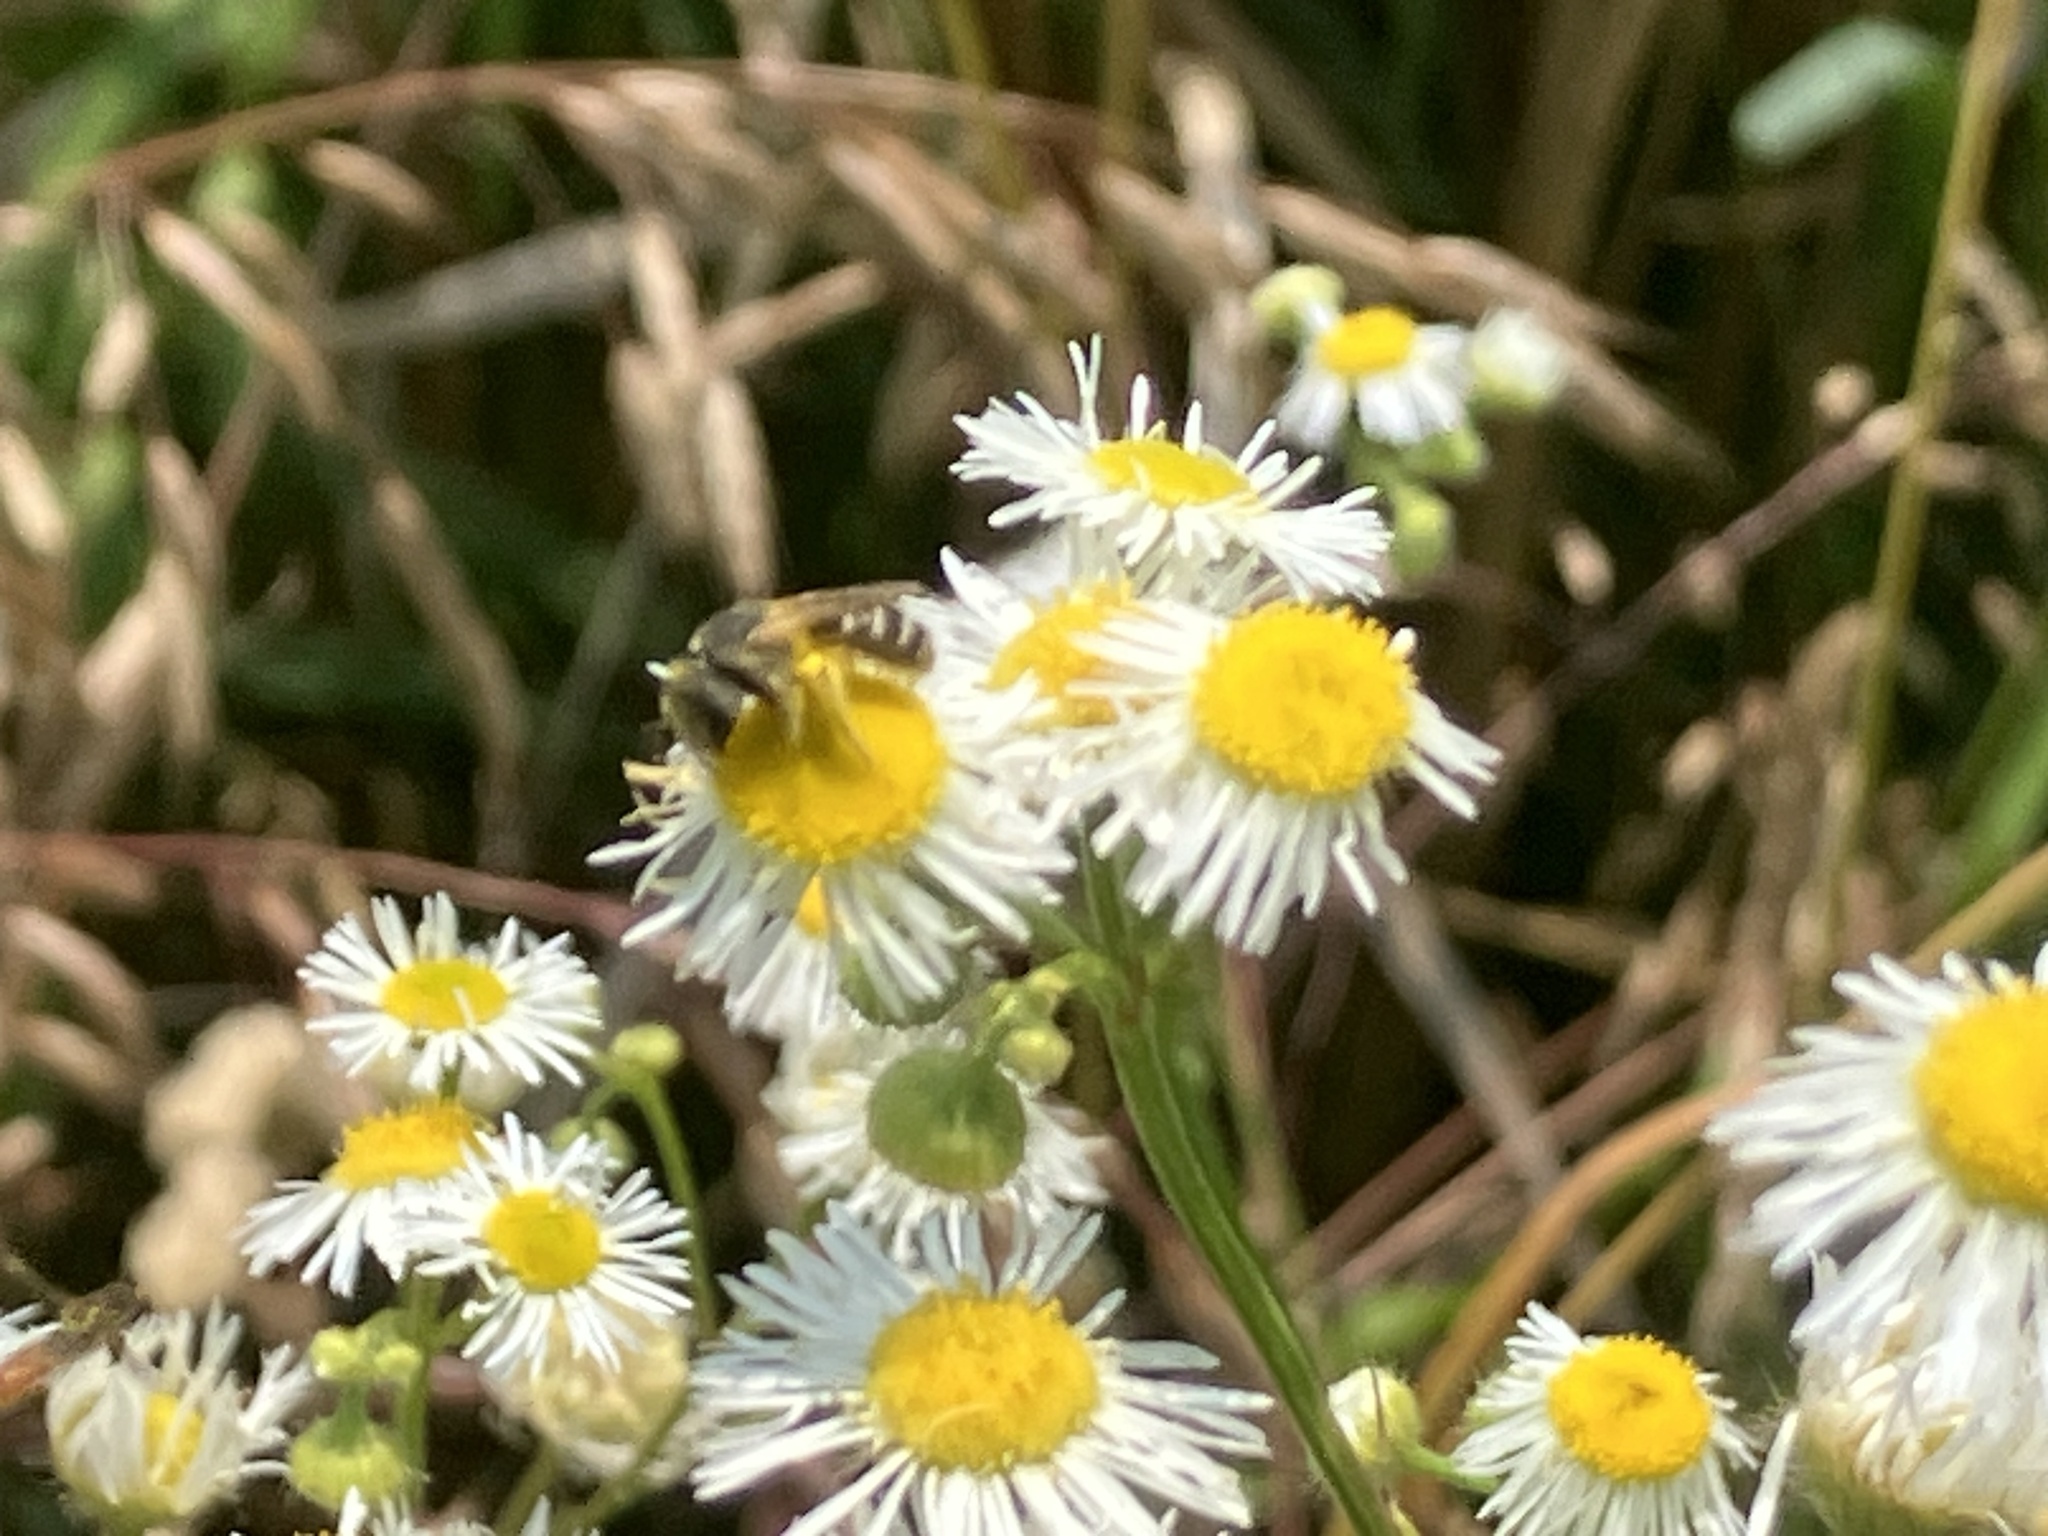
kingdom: Animalia
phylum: Arthropoda
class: Insecta
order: Hymenoptera
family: Halictidae
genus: Halictus
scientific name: Halictus ligatus
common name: Ligated furrow bee
